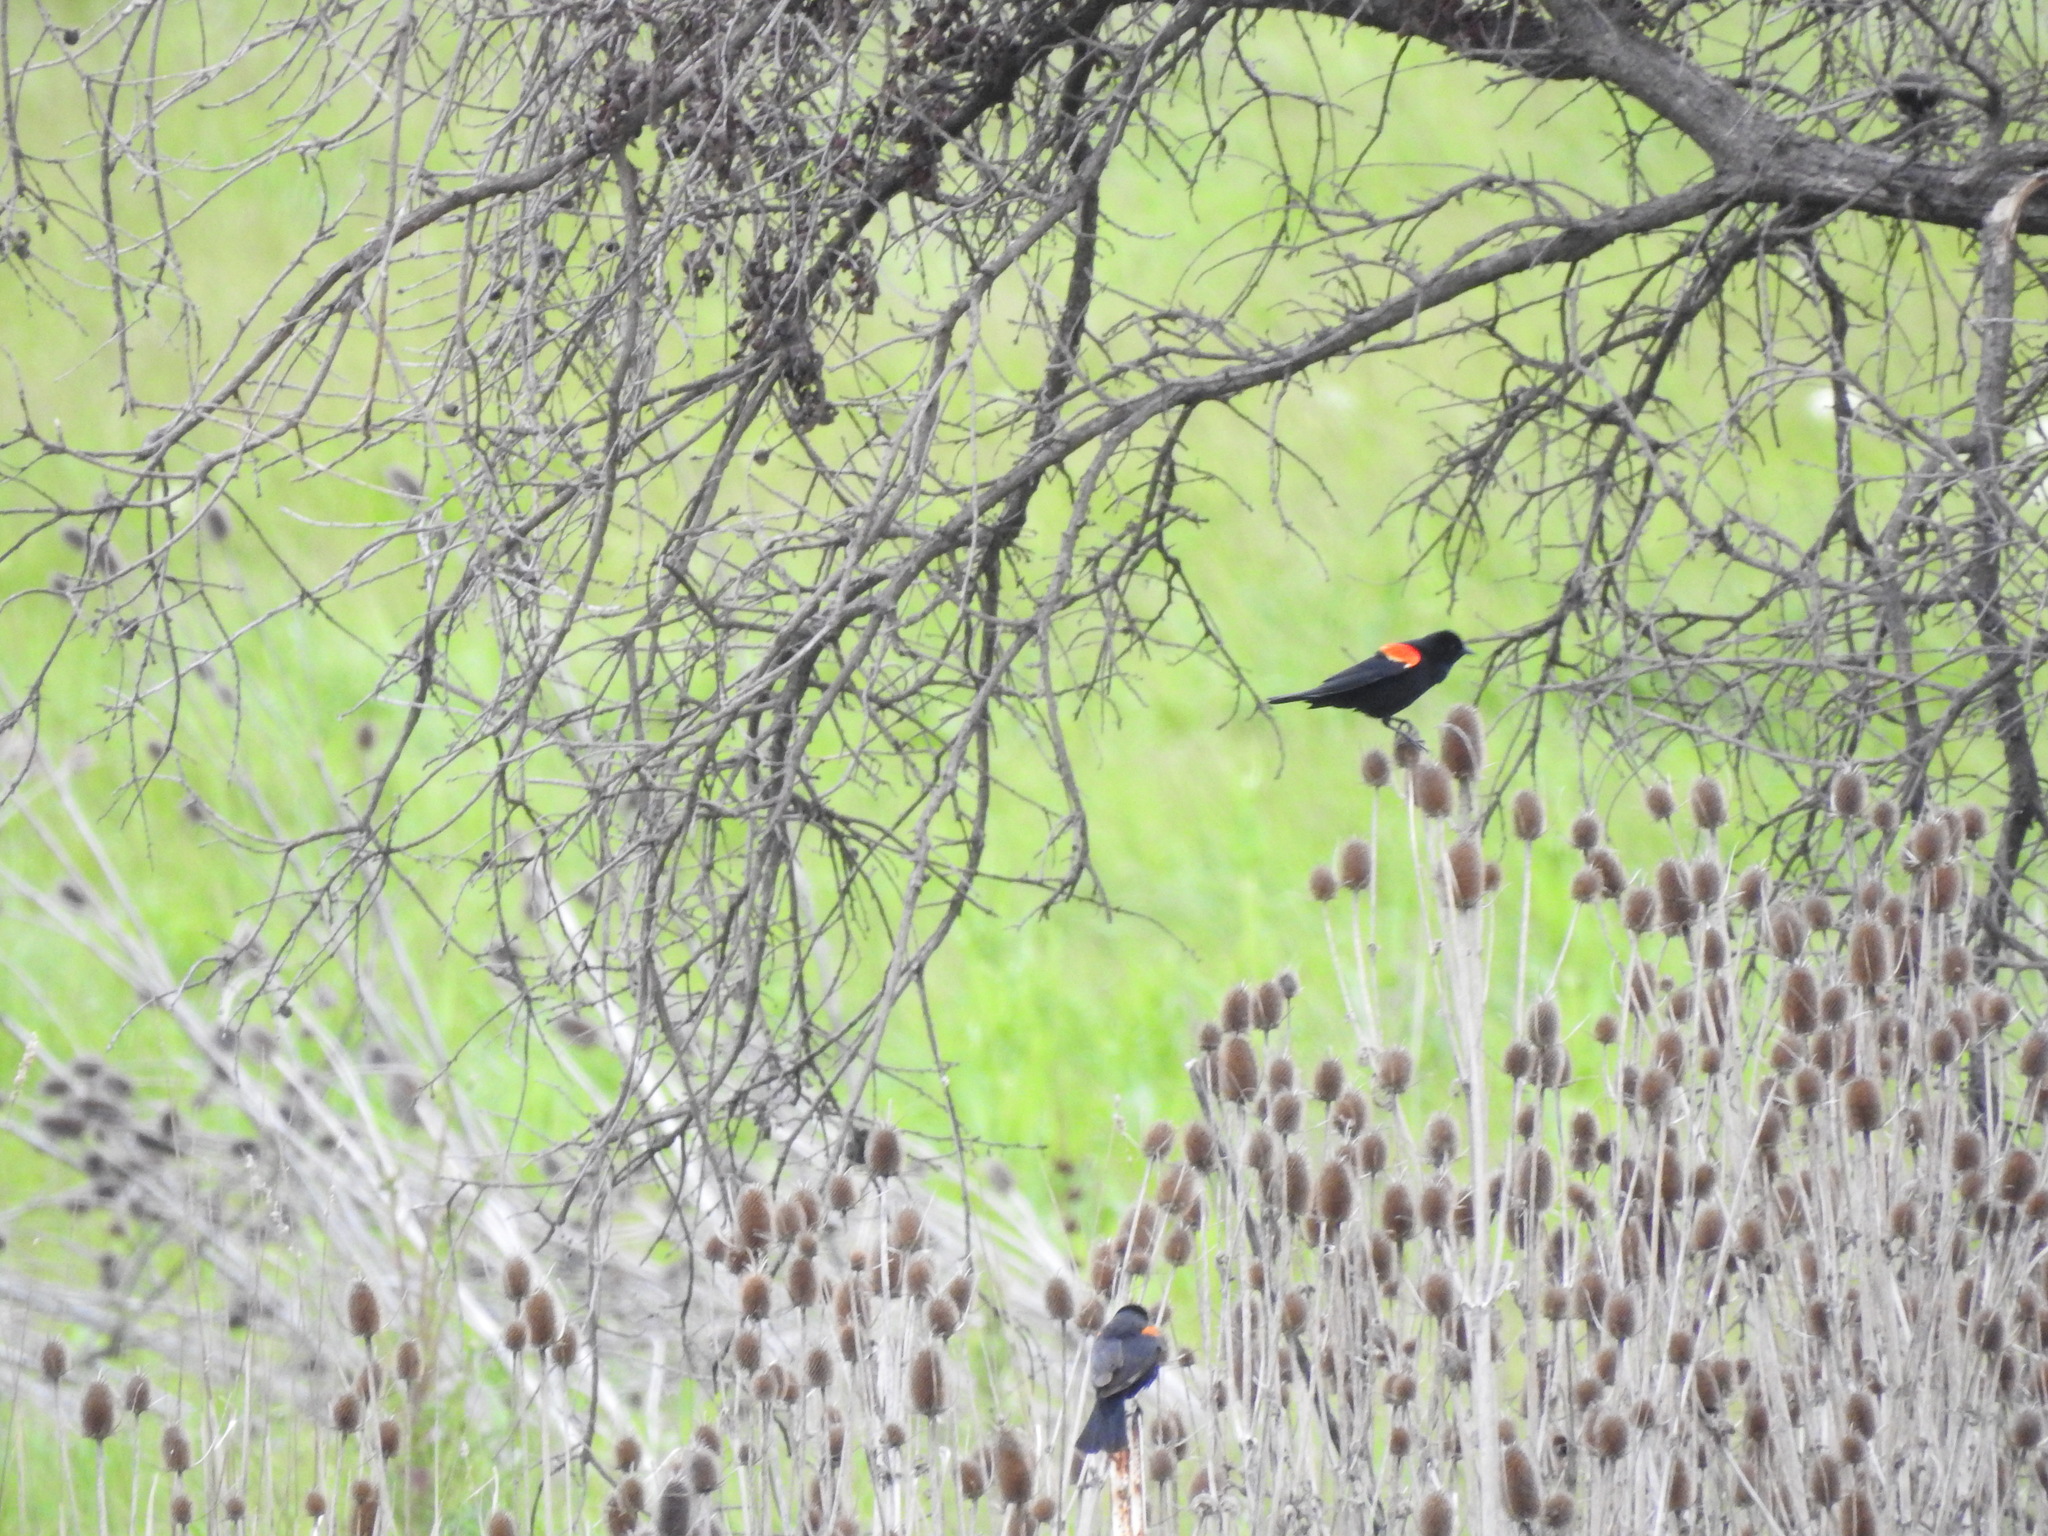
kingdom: Animalia
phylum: Chordata
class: Aves
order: Passeriformes
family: Icteridae
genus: Agelaius
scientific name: Agelaius phoeniceus
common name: Red-winged blackbird
